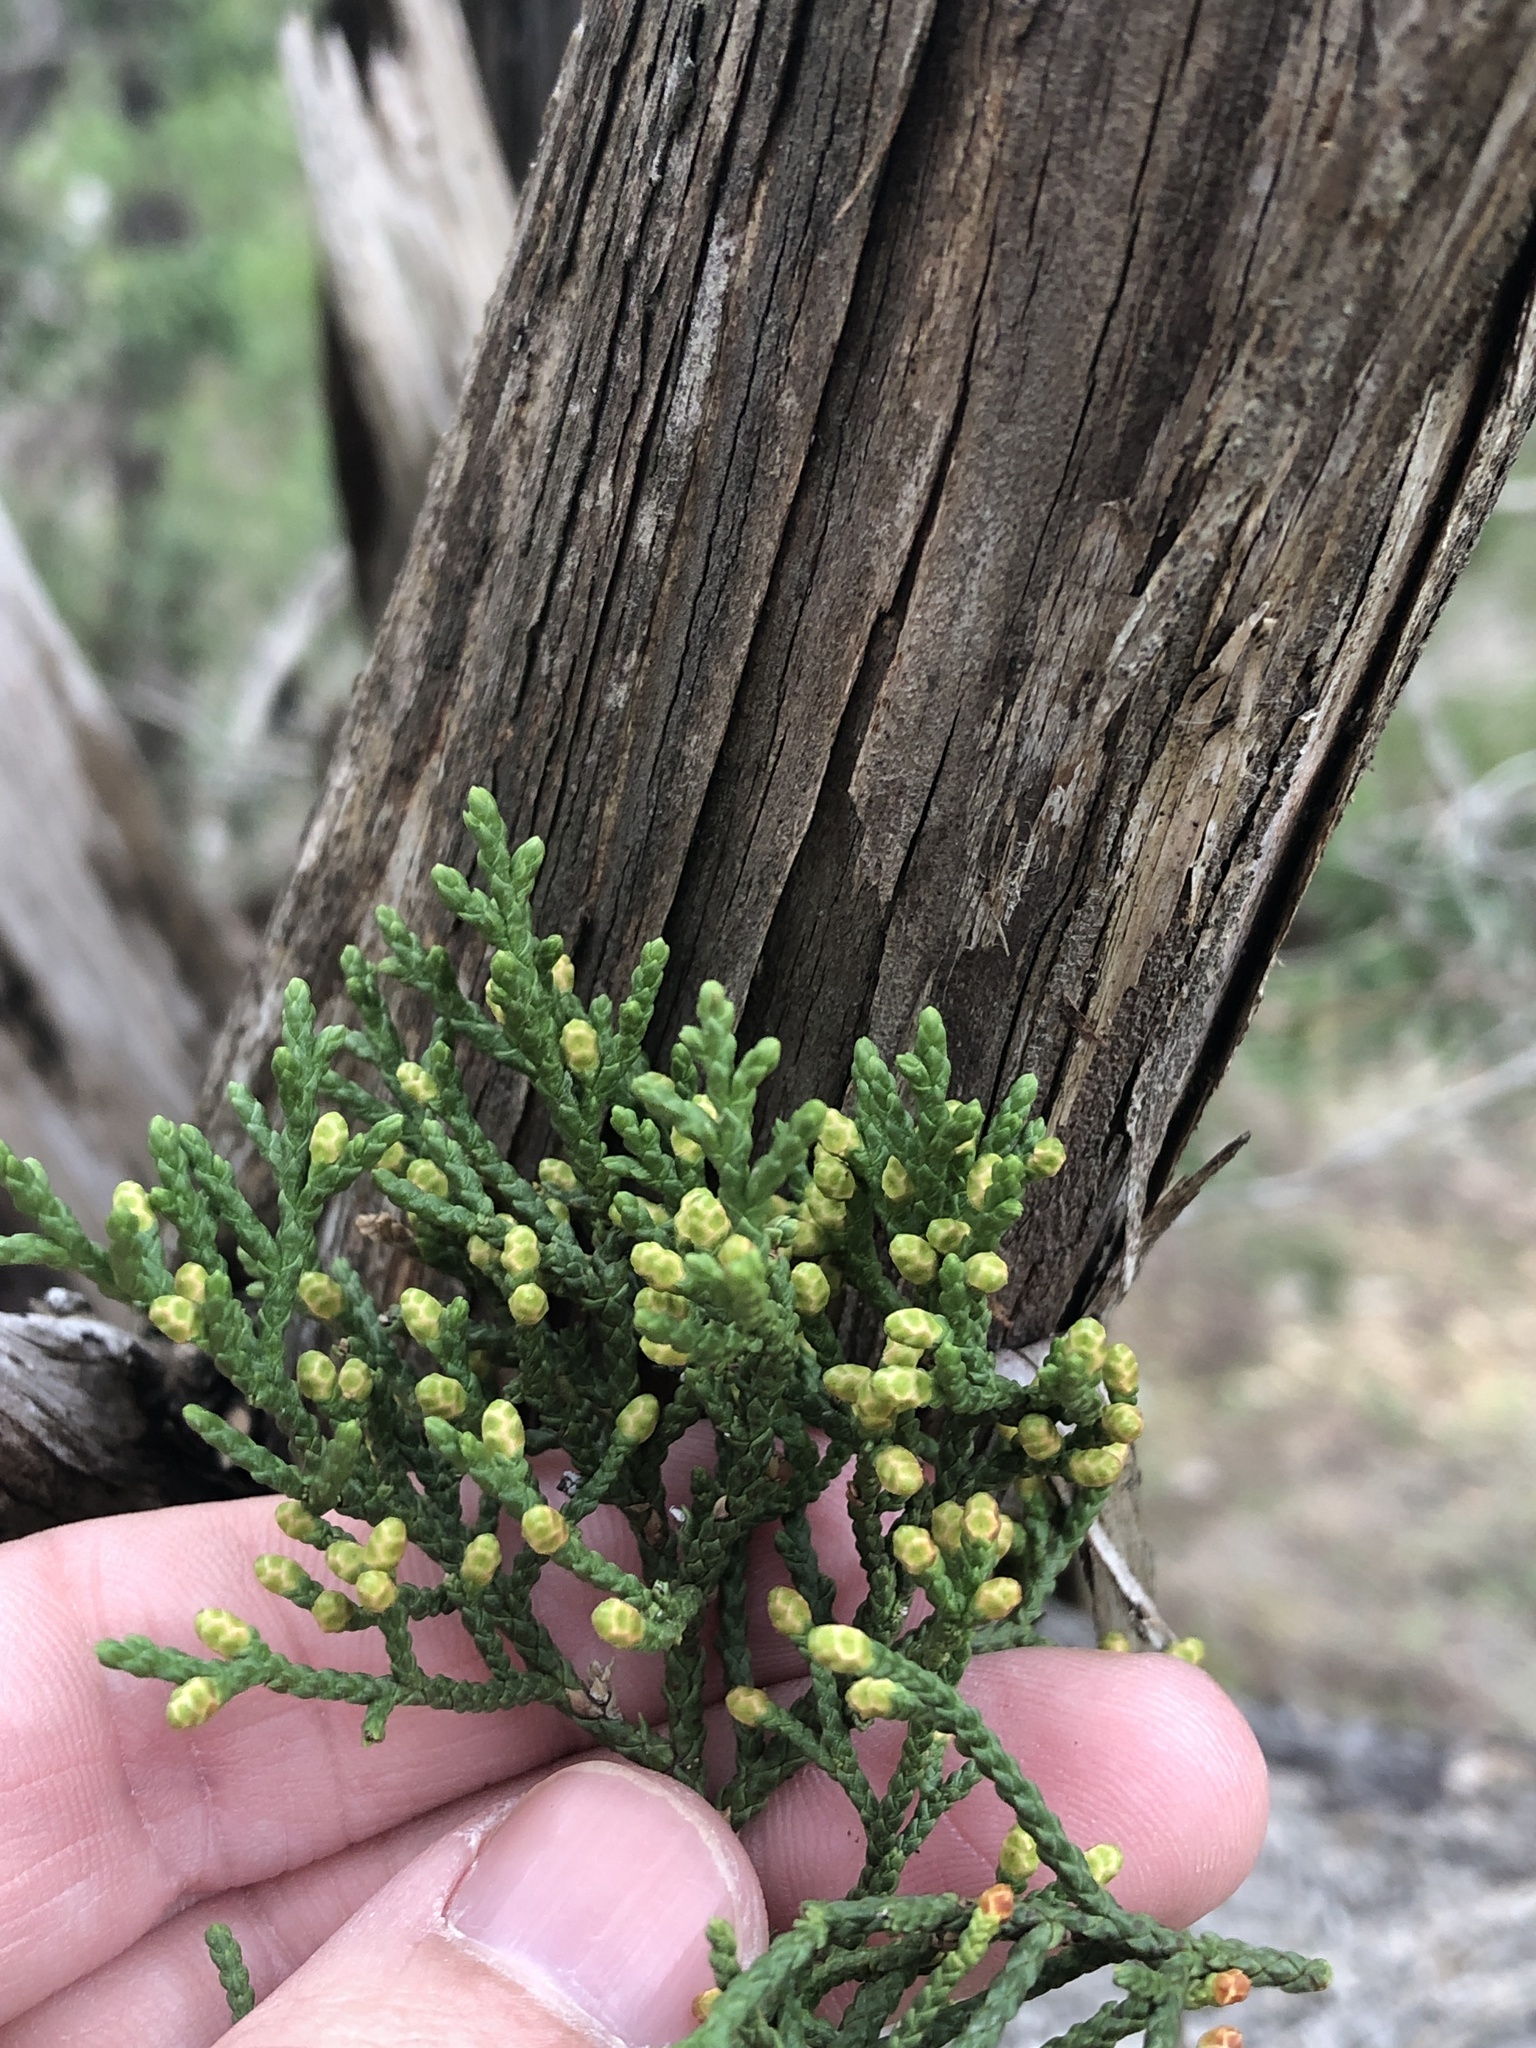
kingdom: Plantae
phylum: Tracheophyta
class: Pinopsida
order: Pinales
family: Cupressaceae
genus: Juniperus
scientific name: Juniperus ashei
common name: Mexican juniper
